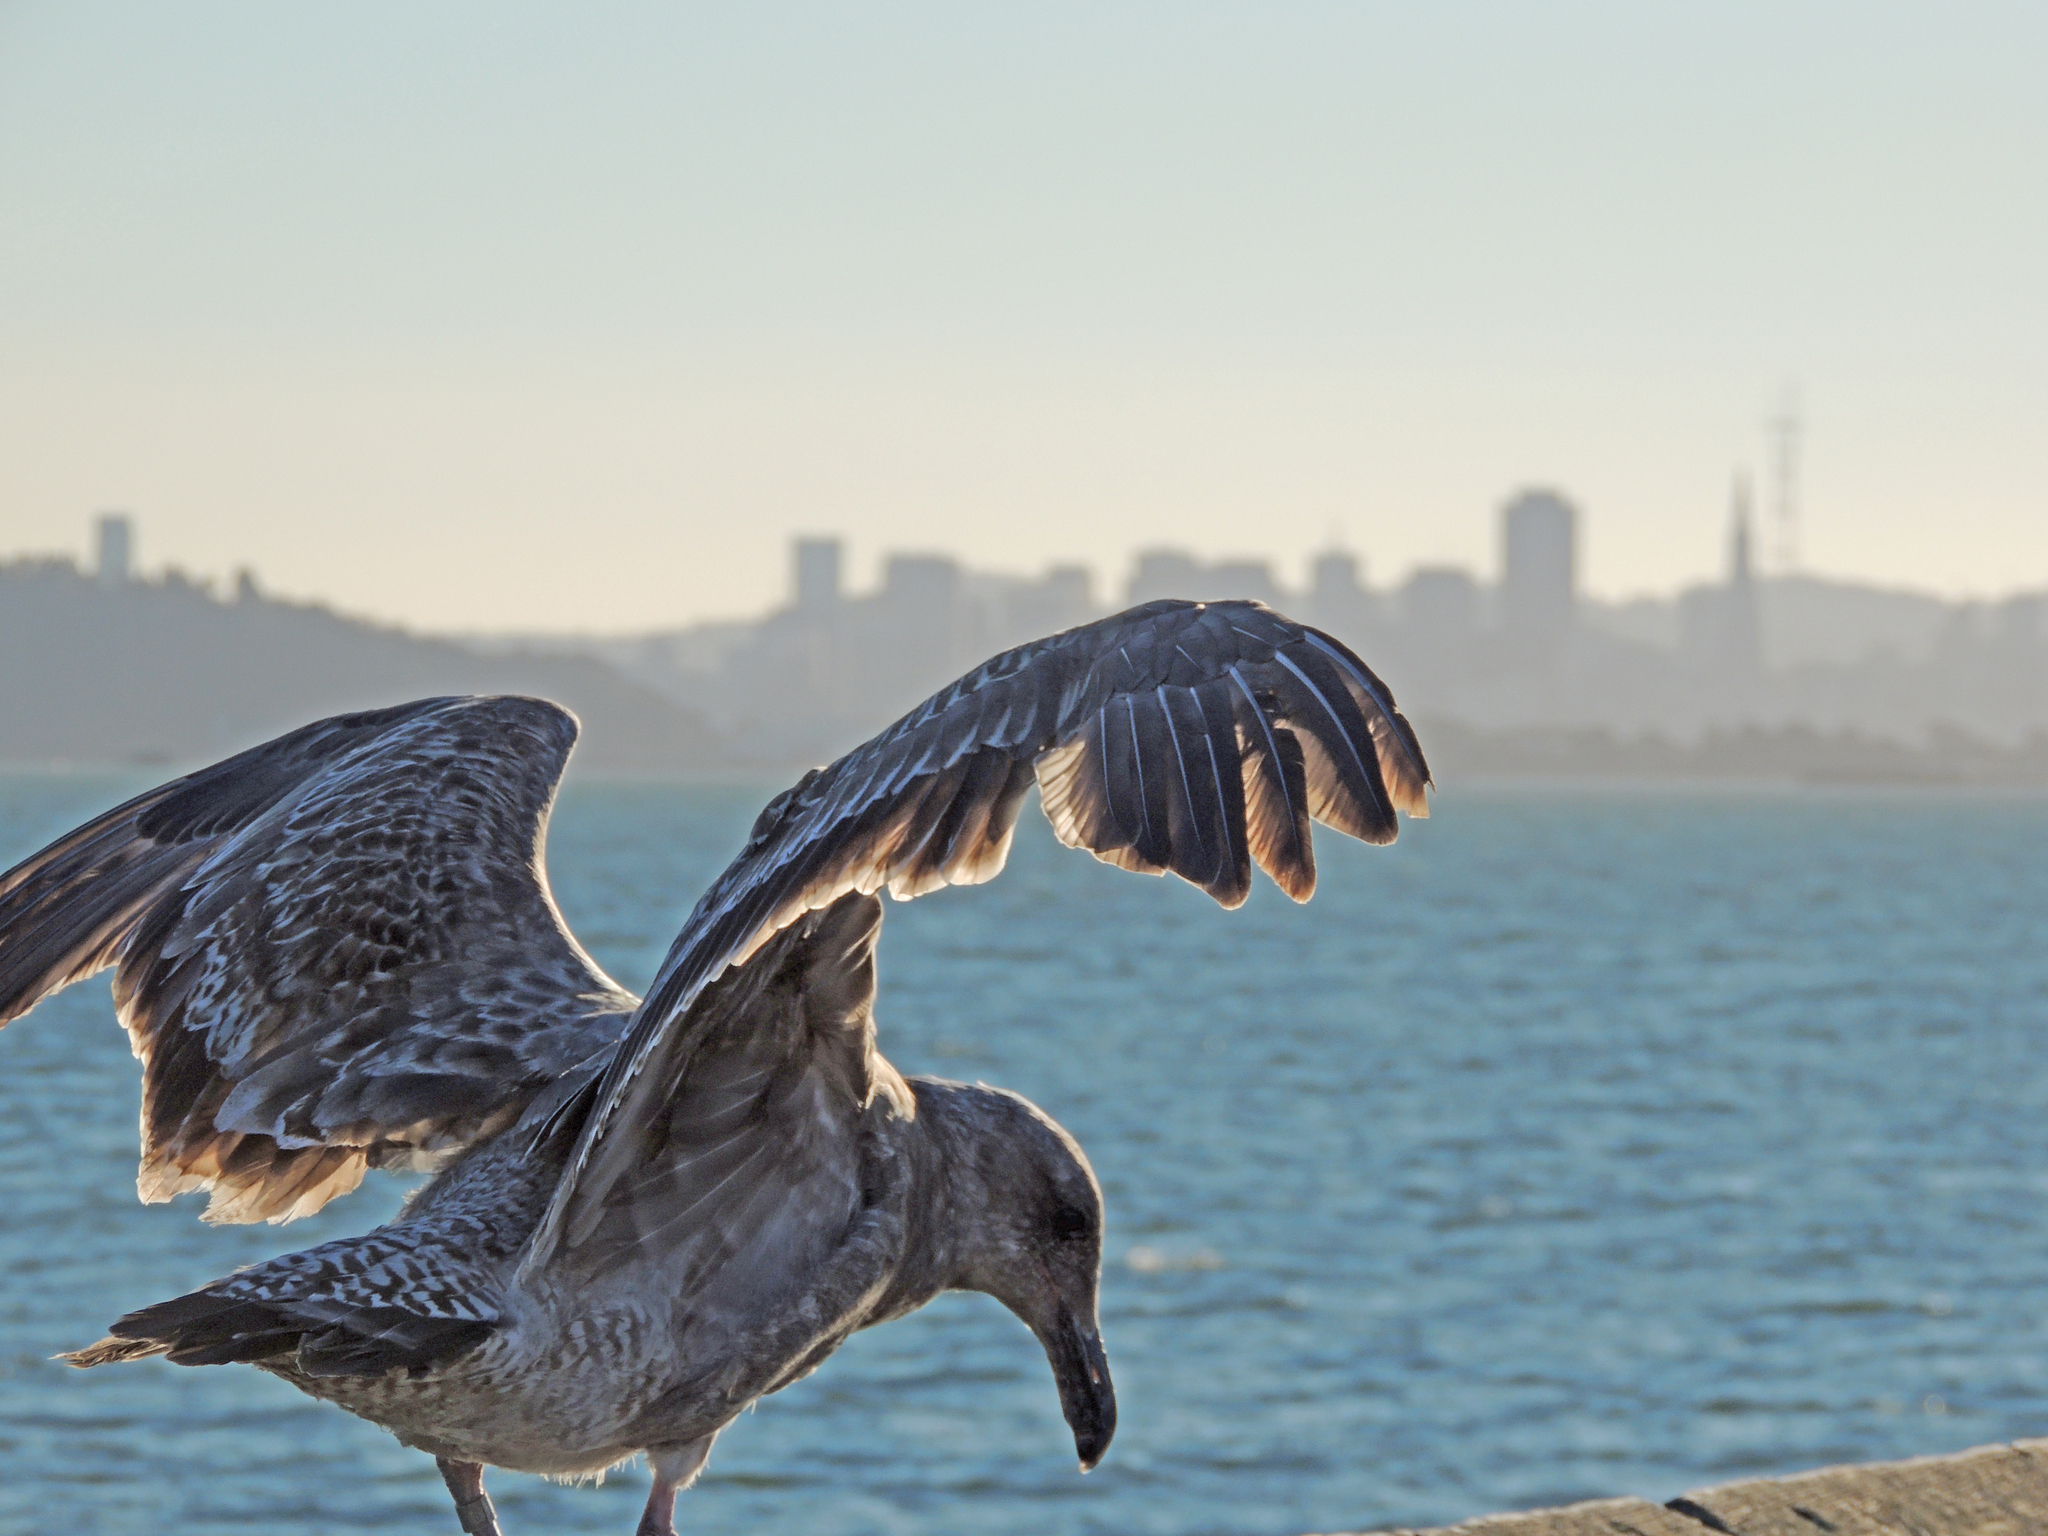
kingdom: Animalia
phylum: Chordata
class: Aves
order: Charadriiformes
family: Laridae
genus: Larus
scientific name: Larus occidentalis
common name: Western gull
